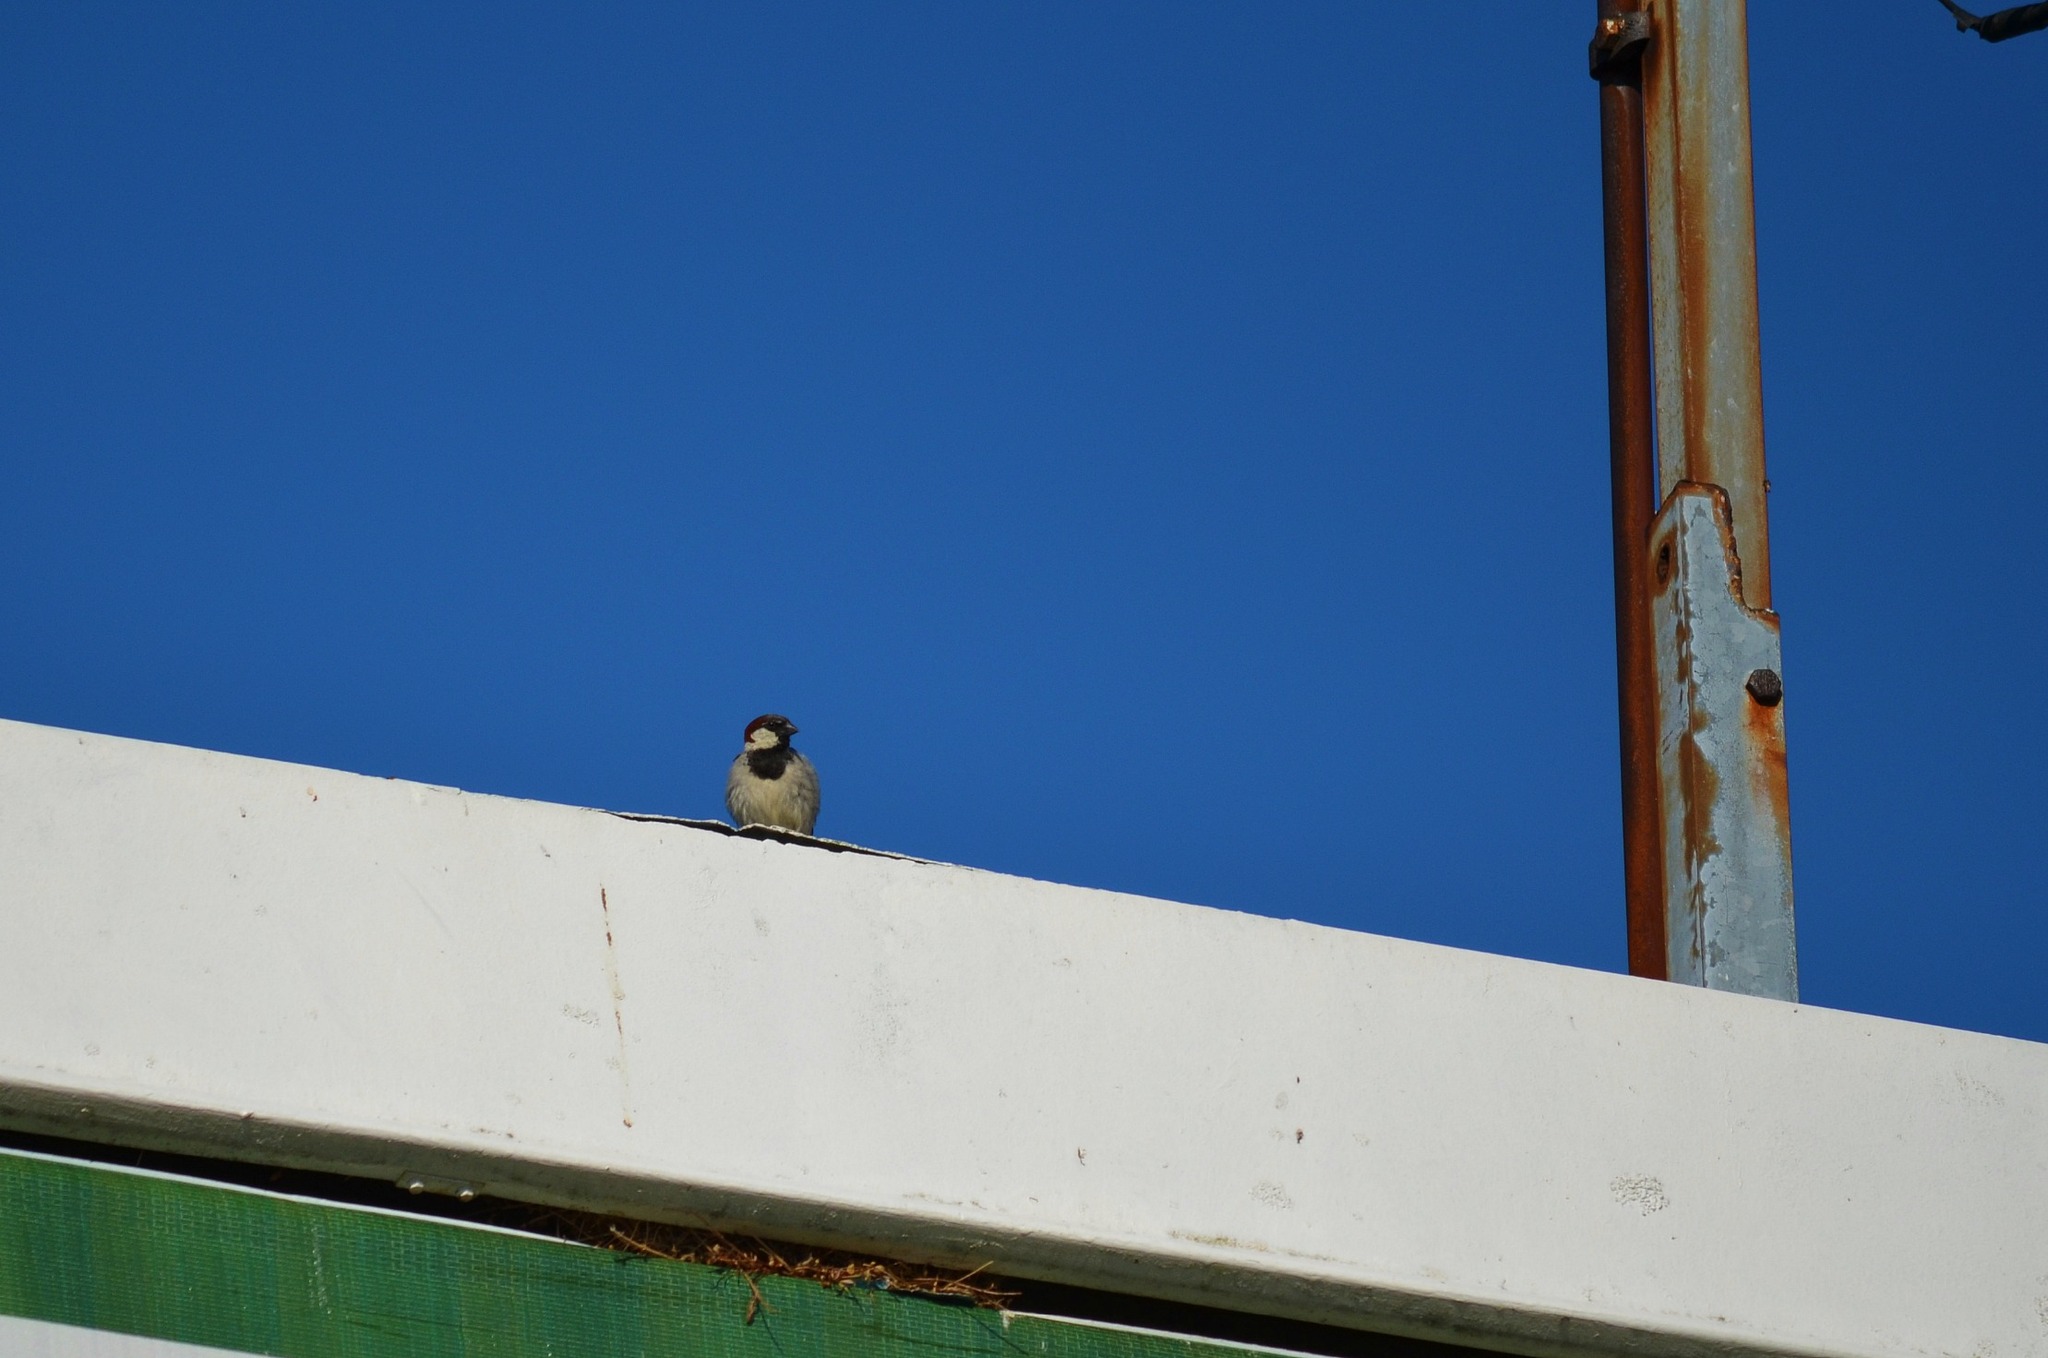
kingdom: Animalia
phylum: Chordata
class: Aves
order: Passeriformes
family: Passeridae
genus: Passer
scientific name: Passer domesticus
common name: House sparrow
